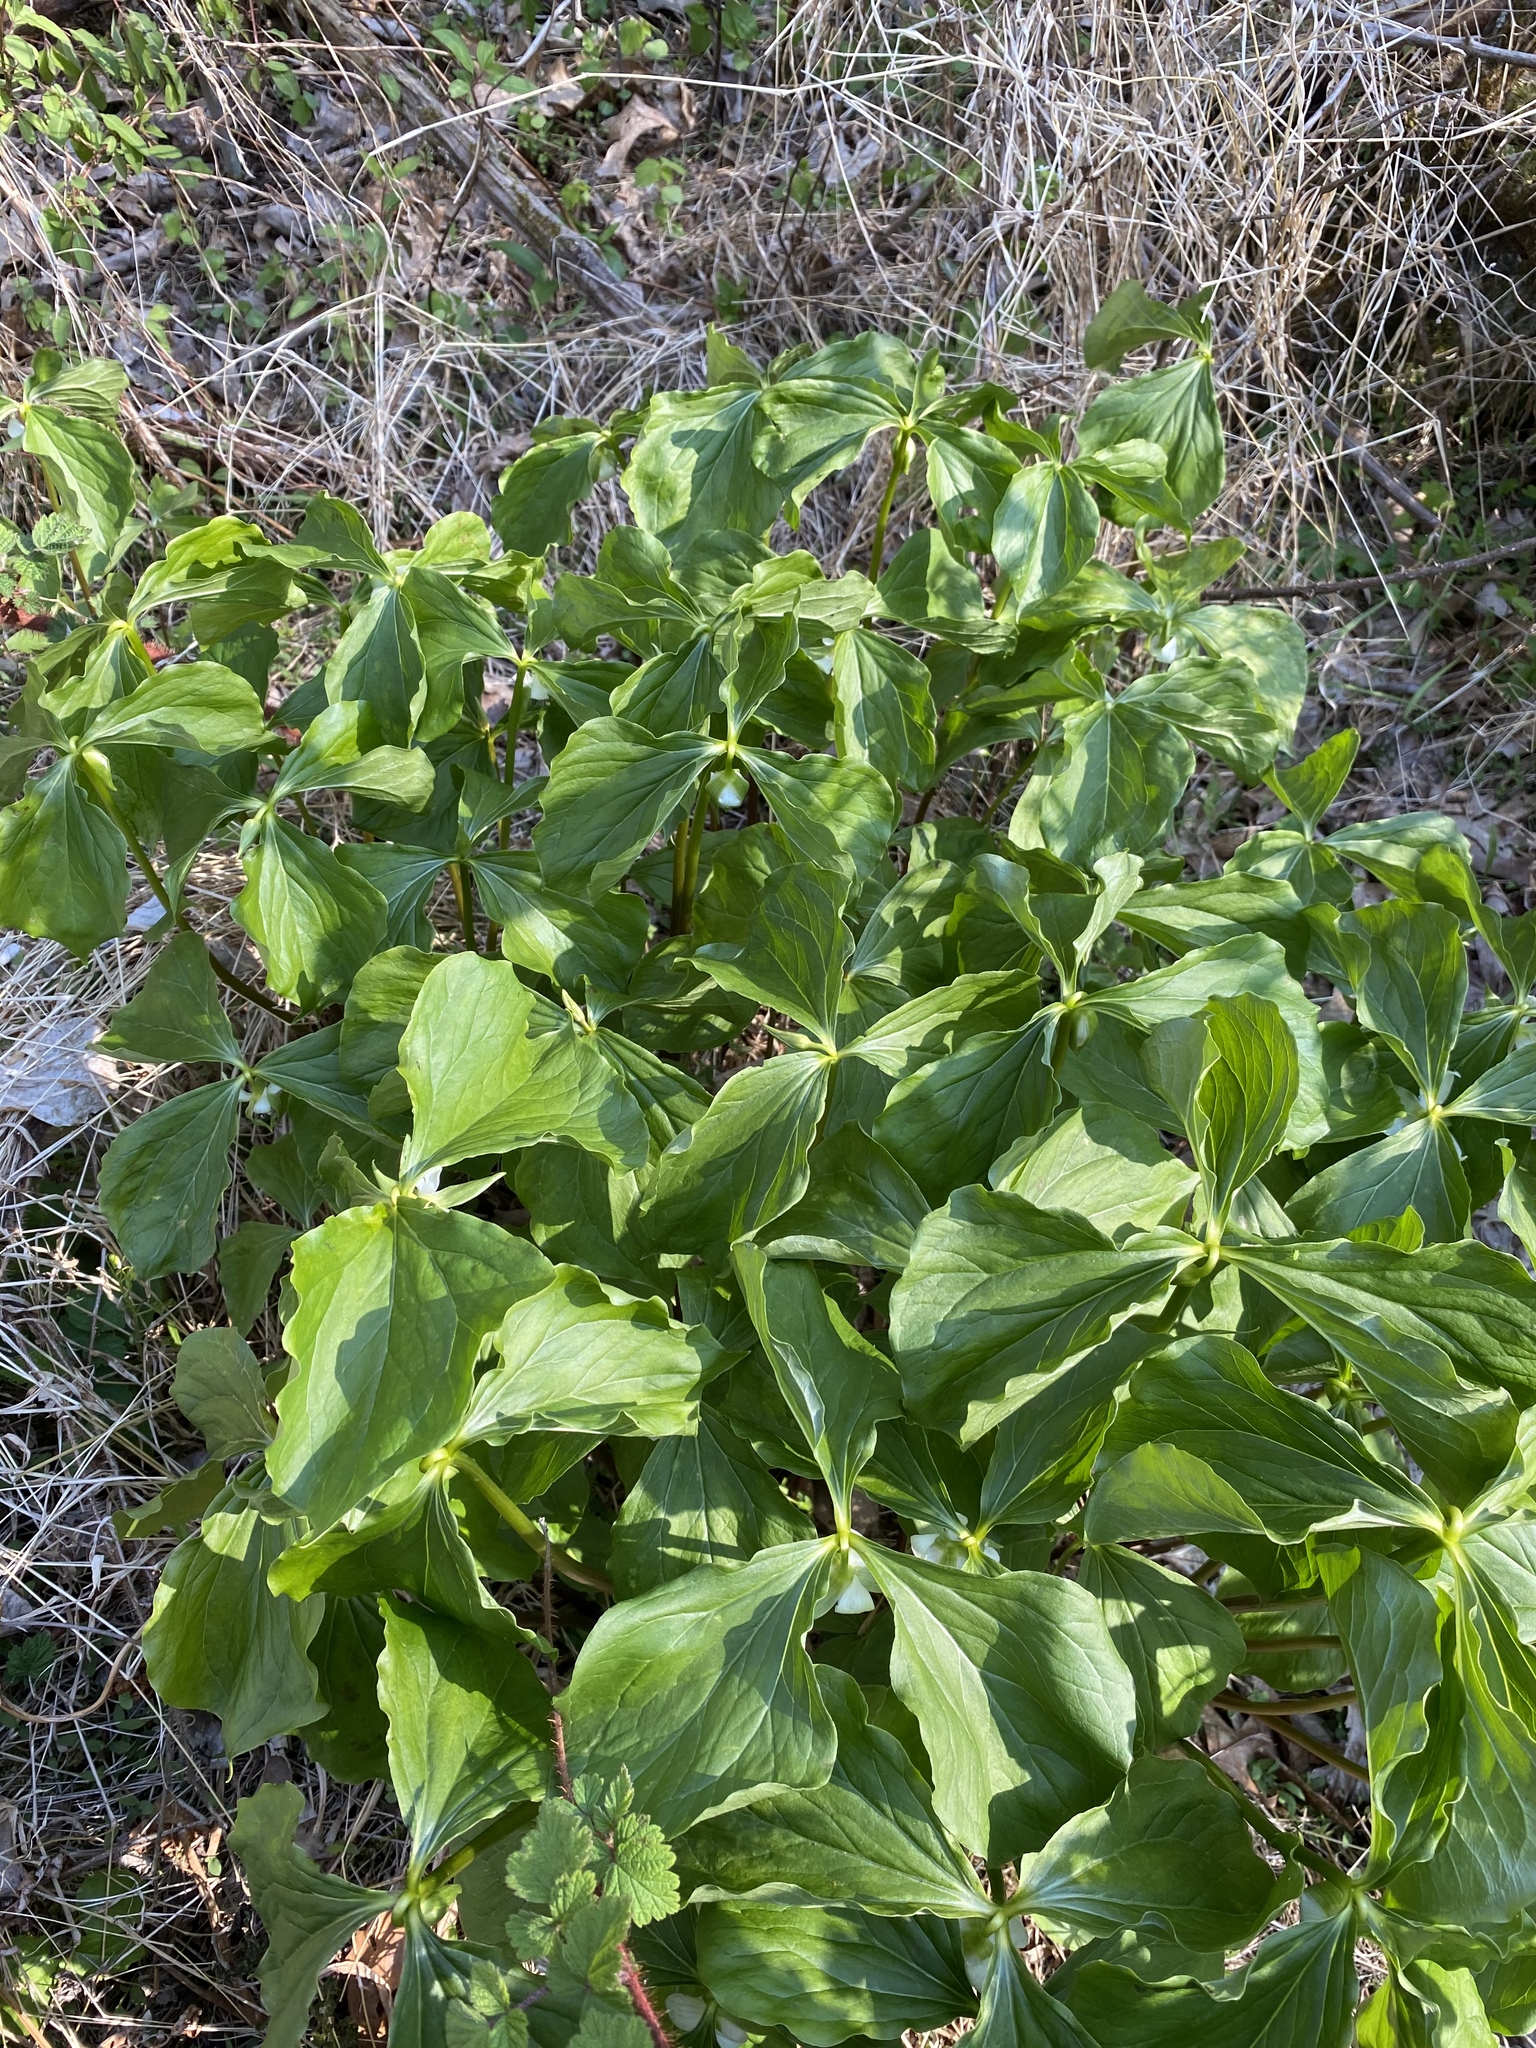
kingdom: Plantae
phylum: Tracheophyta
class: Liliopsida
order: Liliales
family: Melanthiaceae
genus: Trillium
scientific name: Trillium cernuum
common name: Nodding trillium
